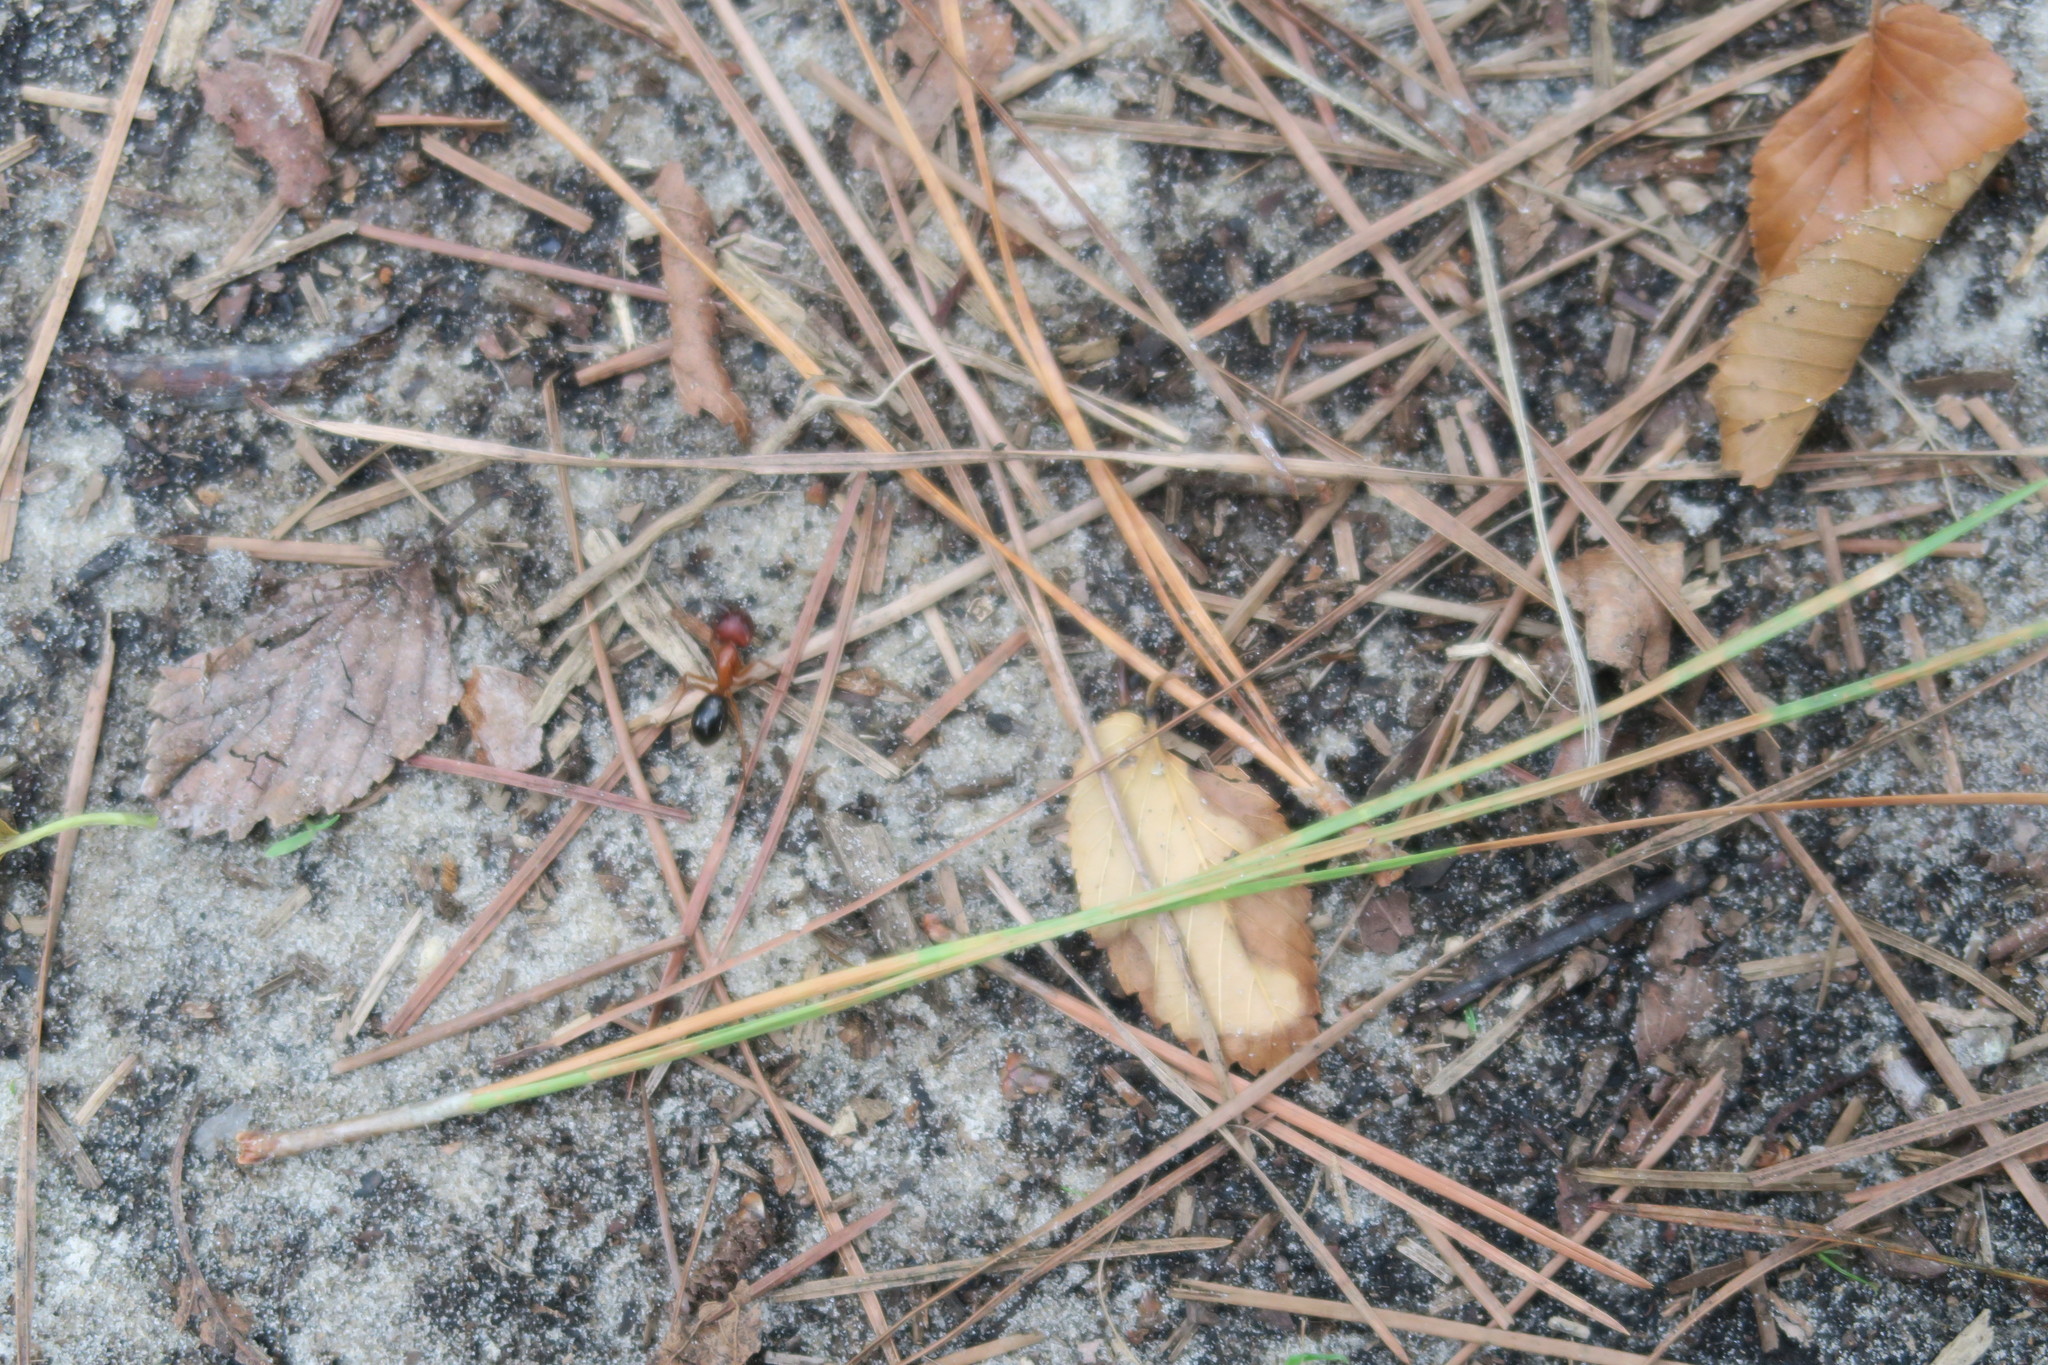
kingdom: Animalia
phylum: Arthropoda
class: Insecta
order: Hymenoptera
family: Formicidae
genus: Camponotus
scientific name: Camponotus floridanus
